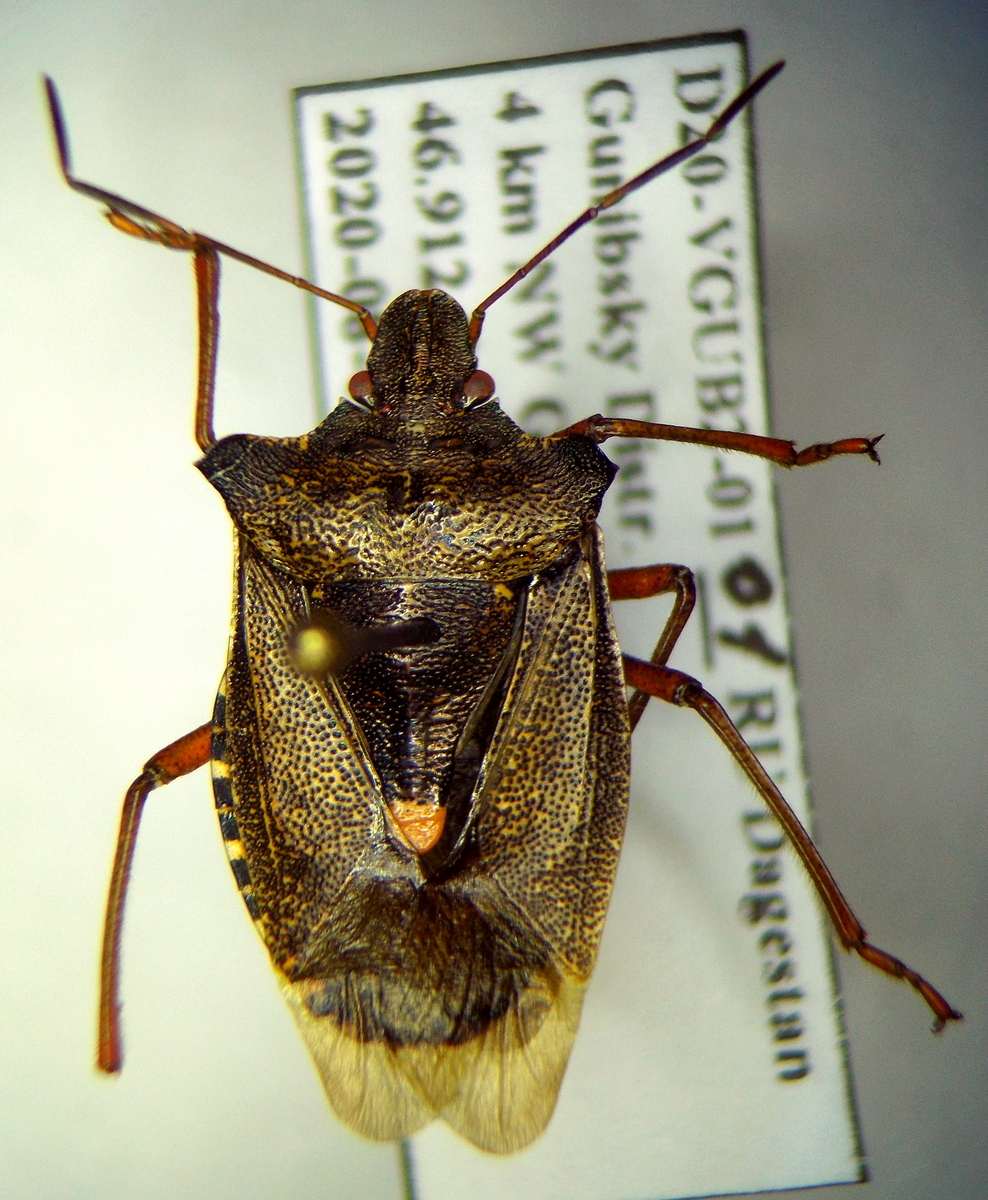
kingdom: Animalia
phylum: Arthropoda
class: Insecta
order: Hemiptera
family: Pentatomidae
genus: Pentatoma
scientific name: Pentatoma rufipes
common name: Forest bug
